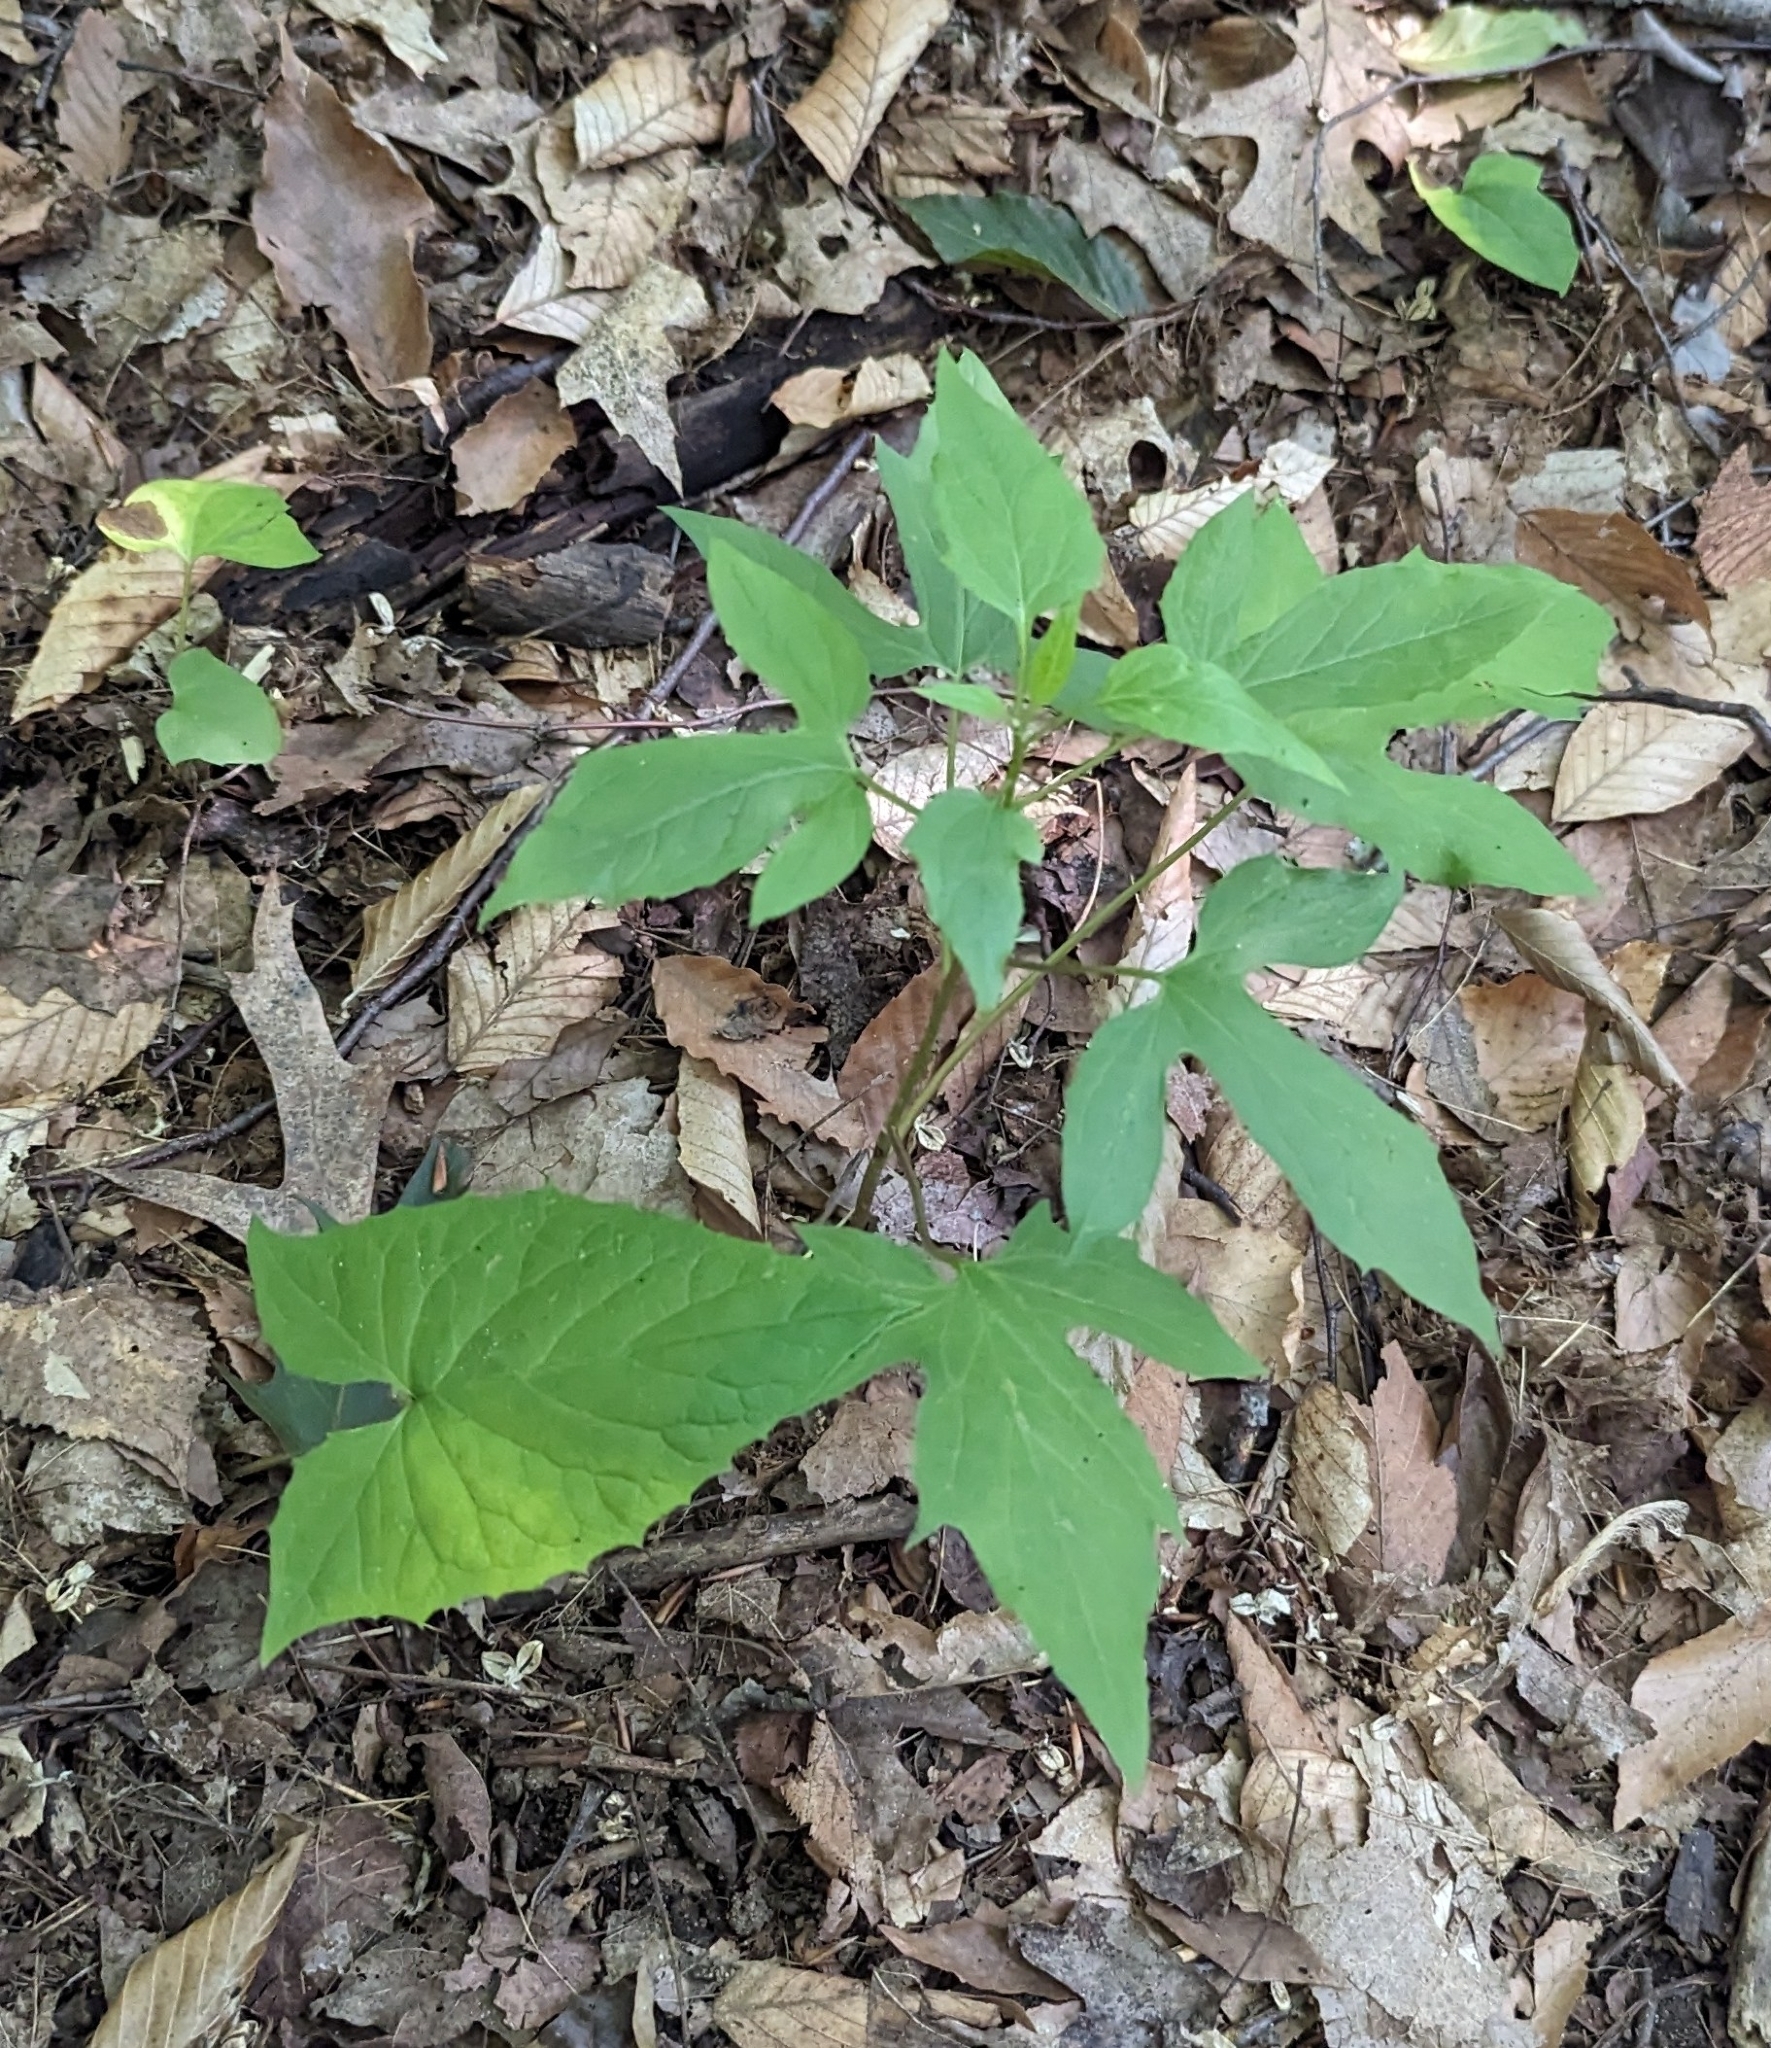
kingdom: Plantae
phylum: Tracheophyta
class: Magnoliopsida
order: Asterales
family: Asteraceae
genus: Nabalus
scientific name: Nabalus altissima
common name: Tall rattlesnakeroot
